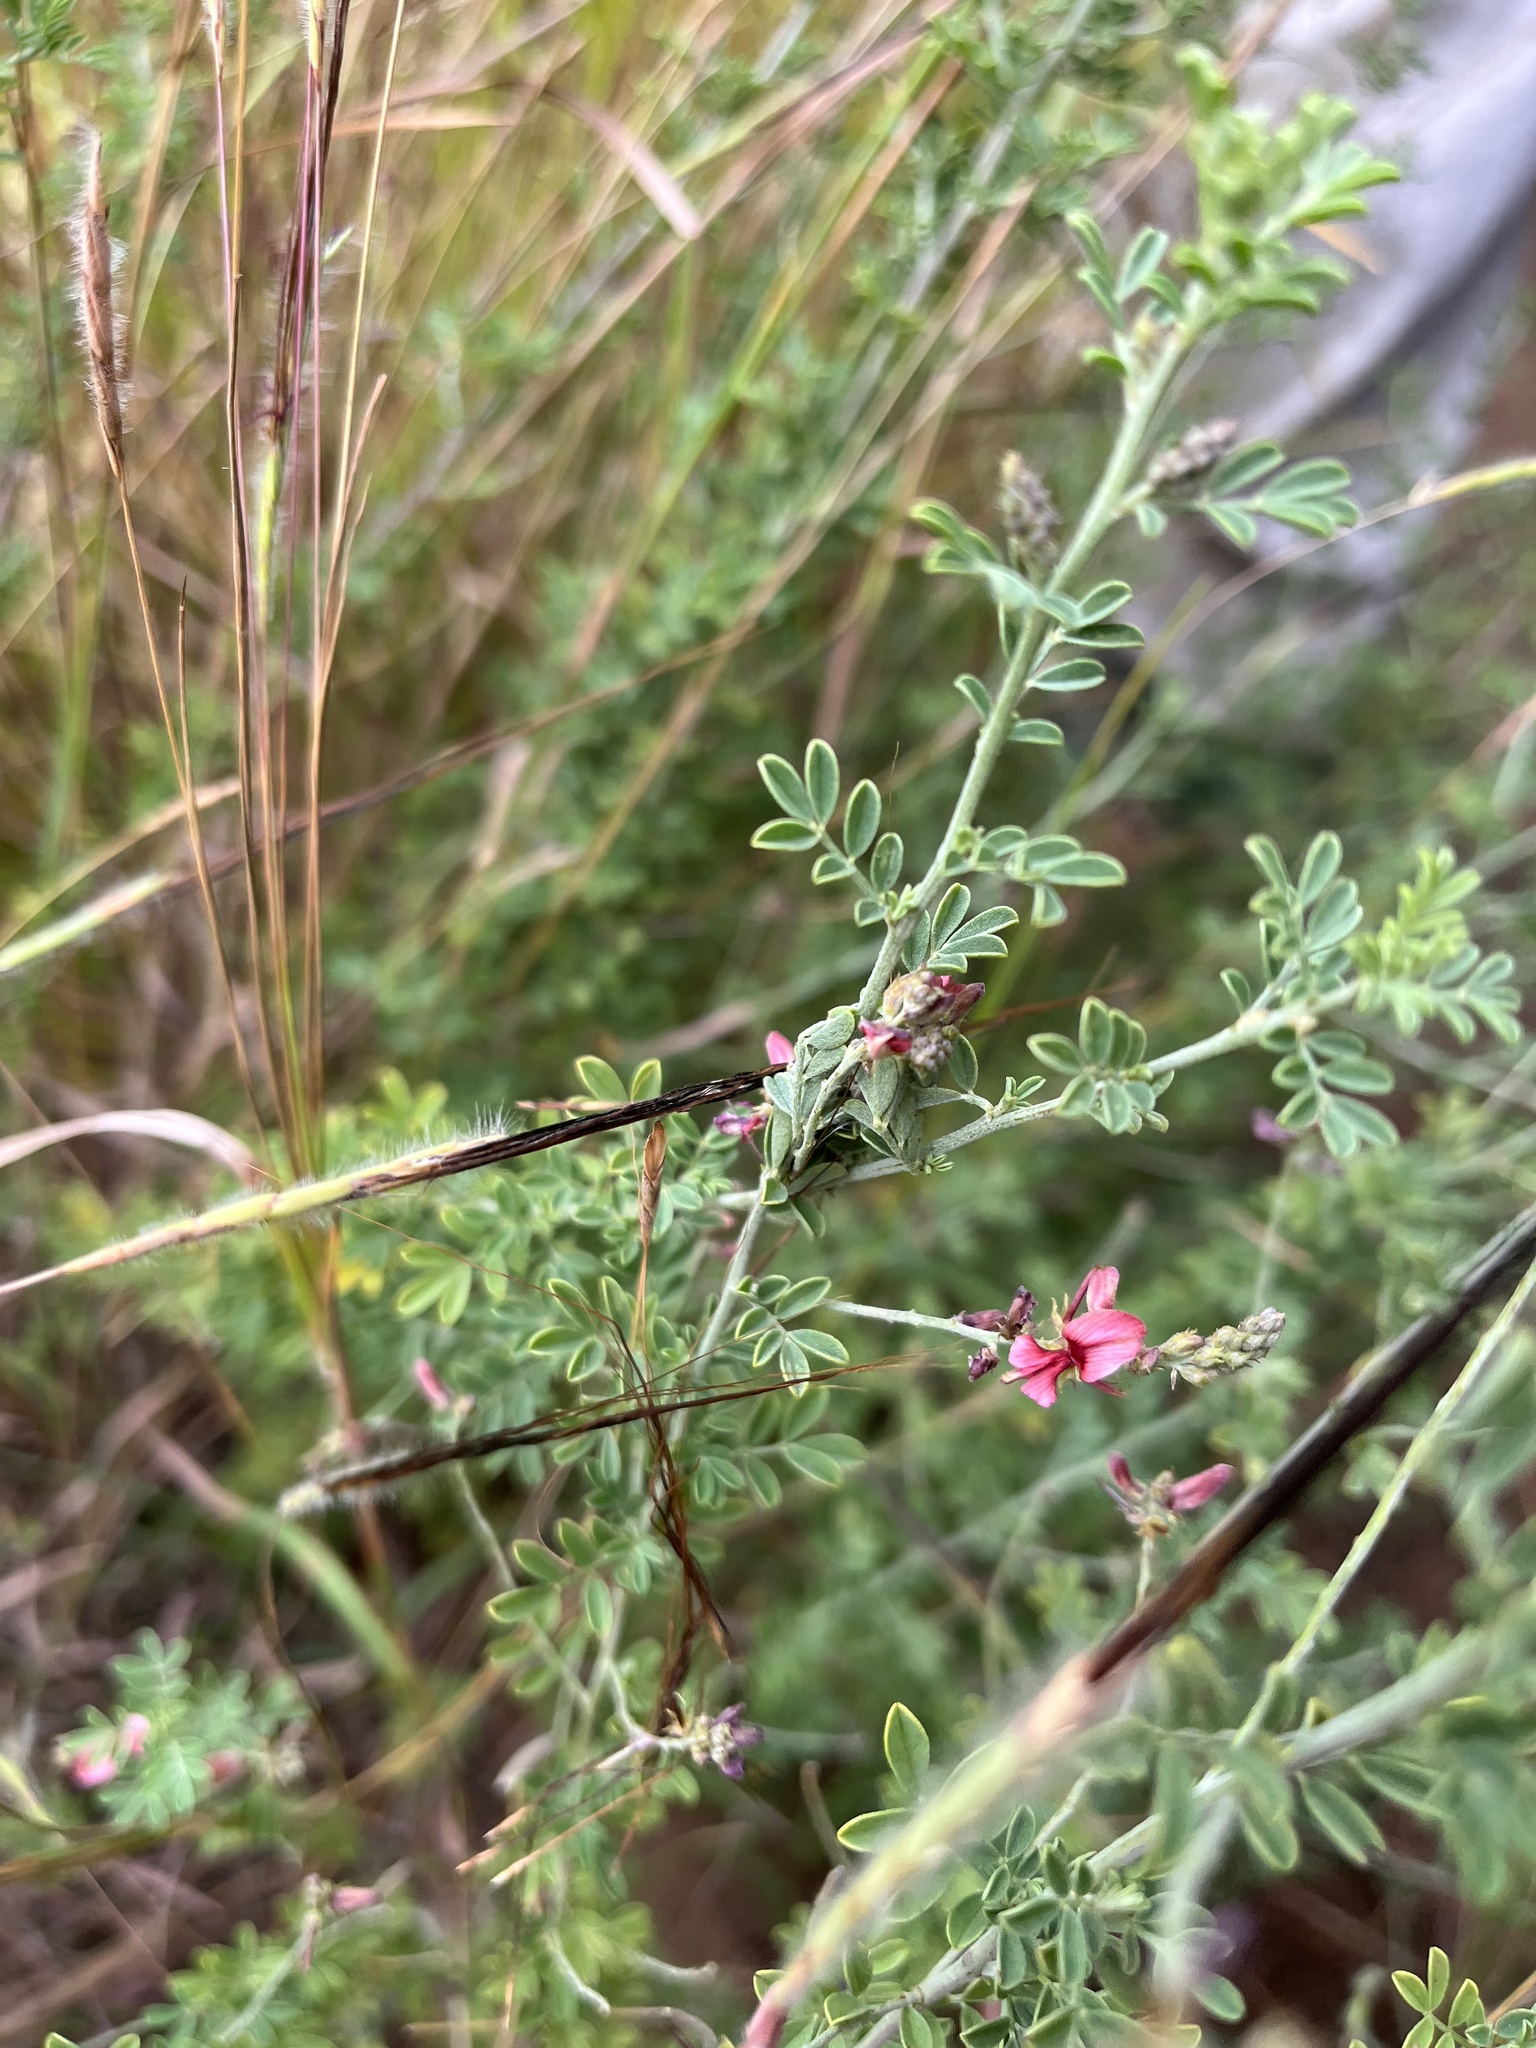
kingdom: Plantae
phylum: Tracheophyta
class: Magnoliopsida
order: Fabales
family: Fabaceae
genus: Indigofera
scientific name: Indigofera lydenburgensis
